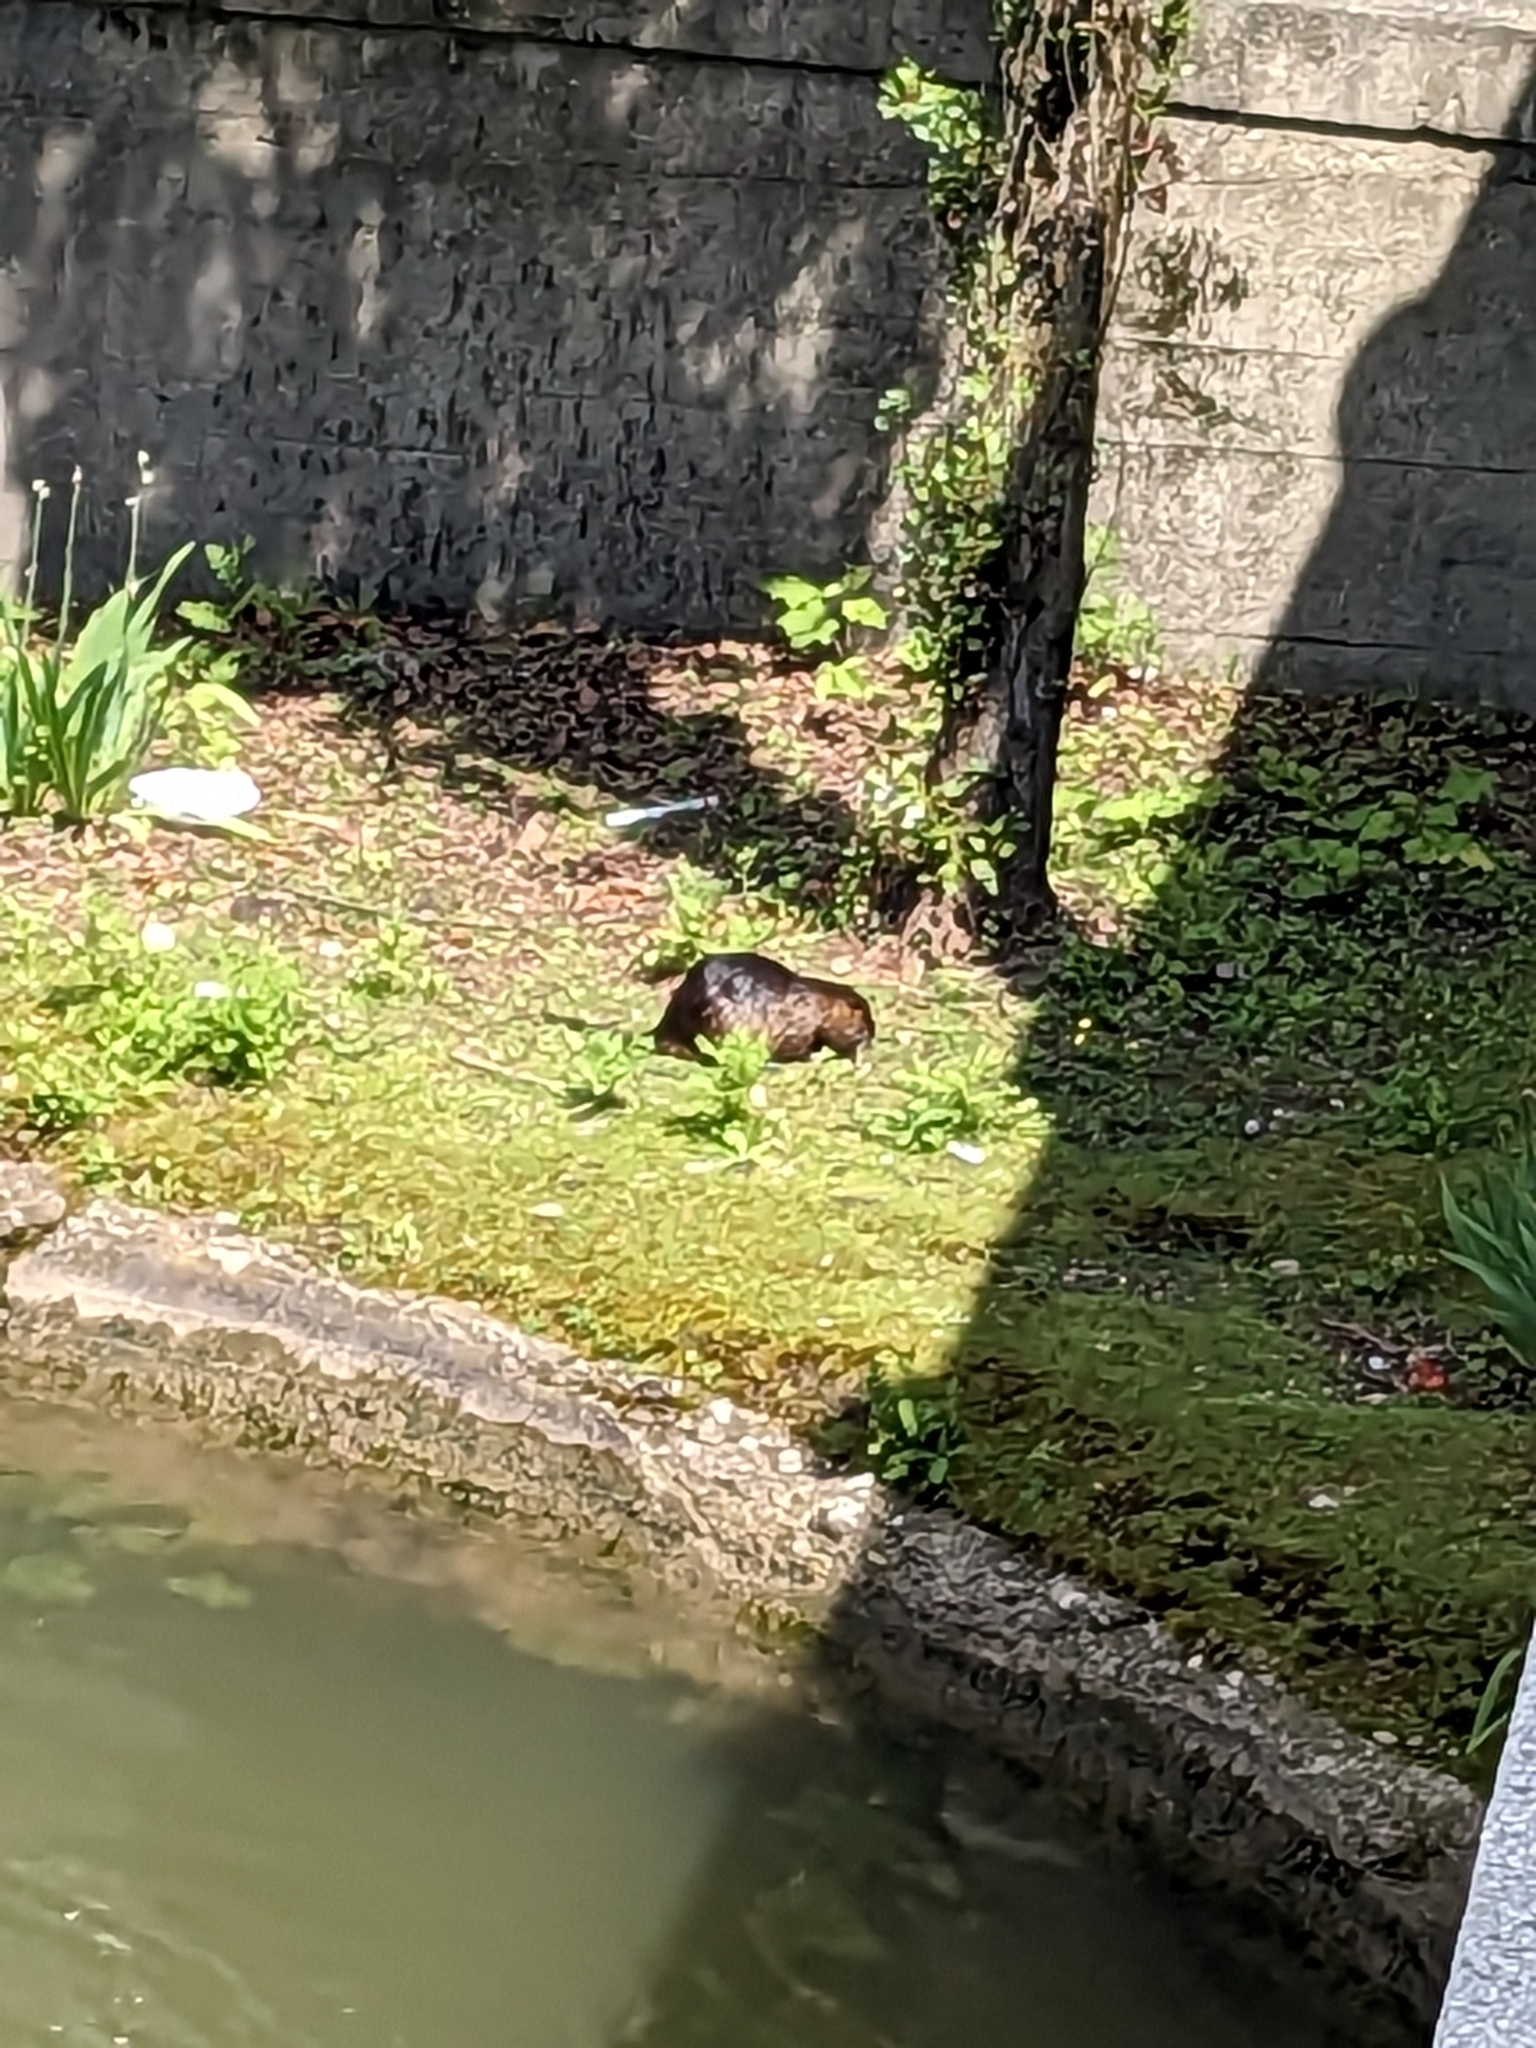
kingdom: Animalia
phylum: Chordata
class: Mammalia
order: Rodentia
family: Myocastoridae
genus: Myocastor
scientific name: Myocastor coypus
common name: Coypu
